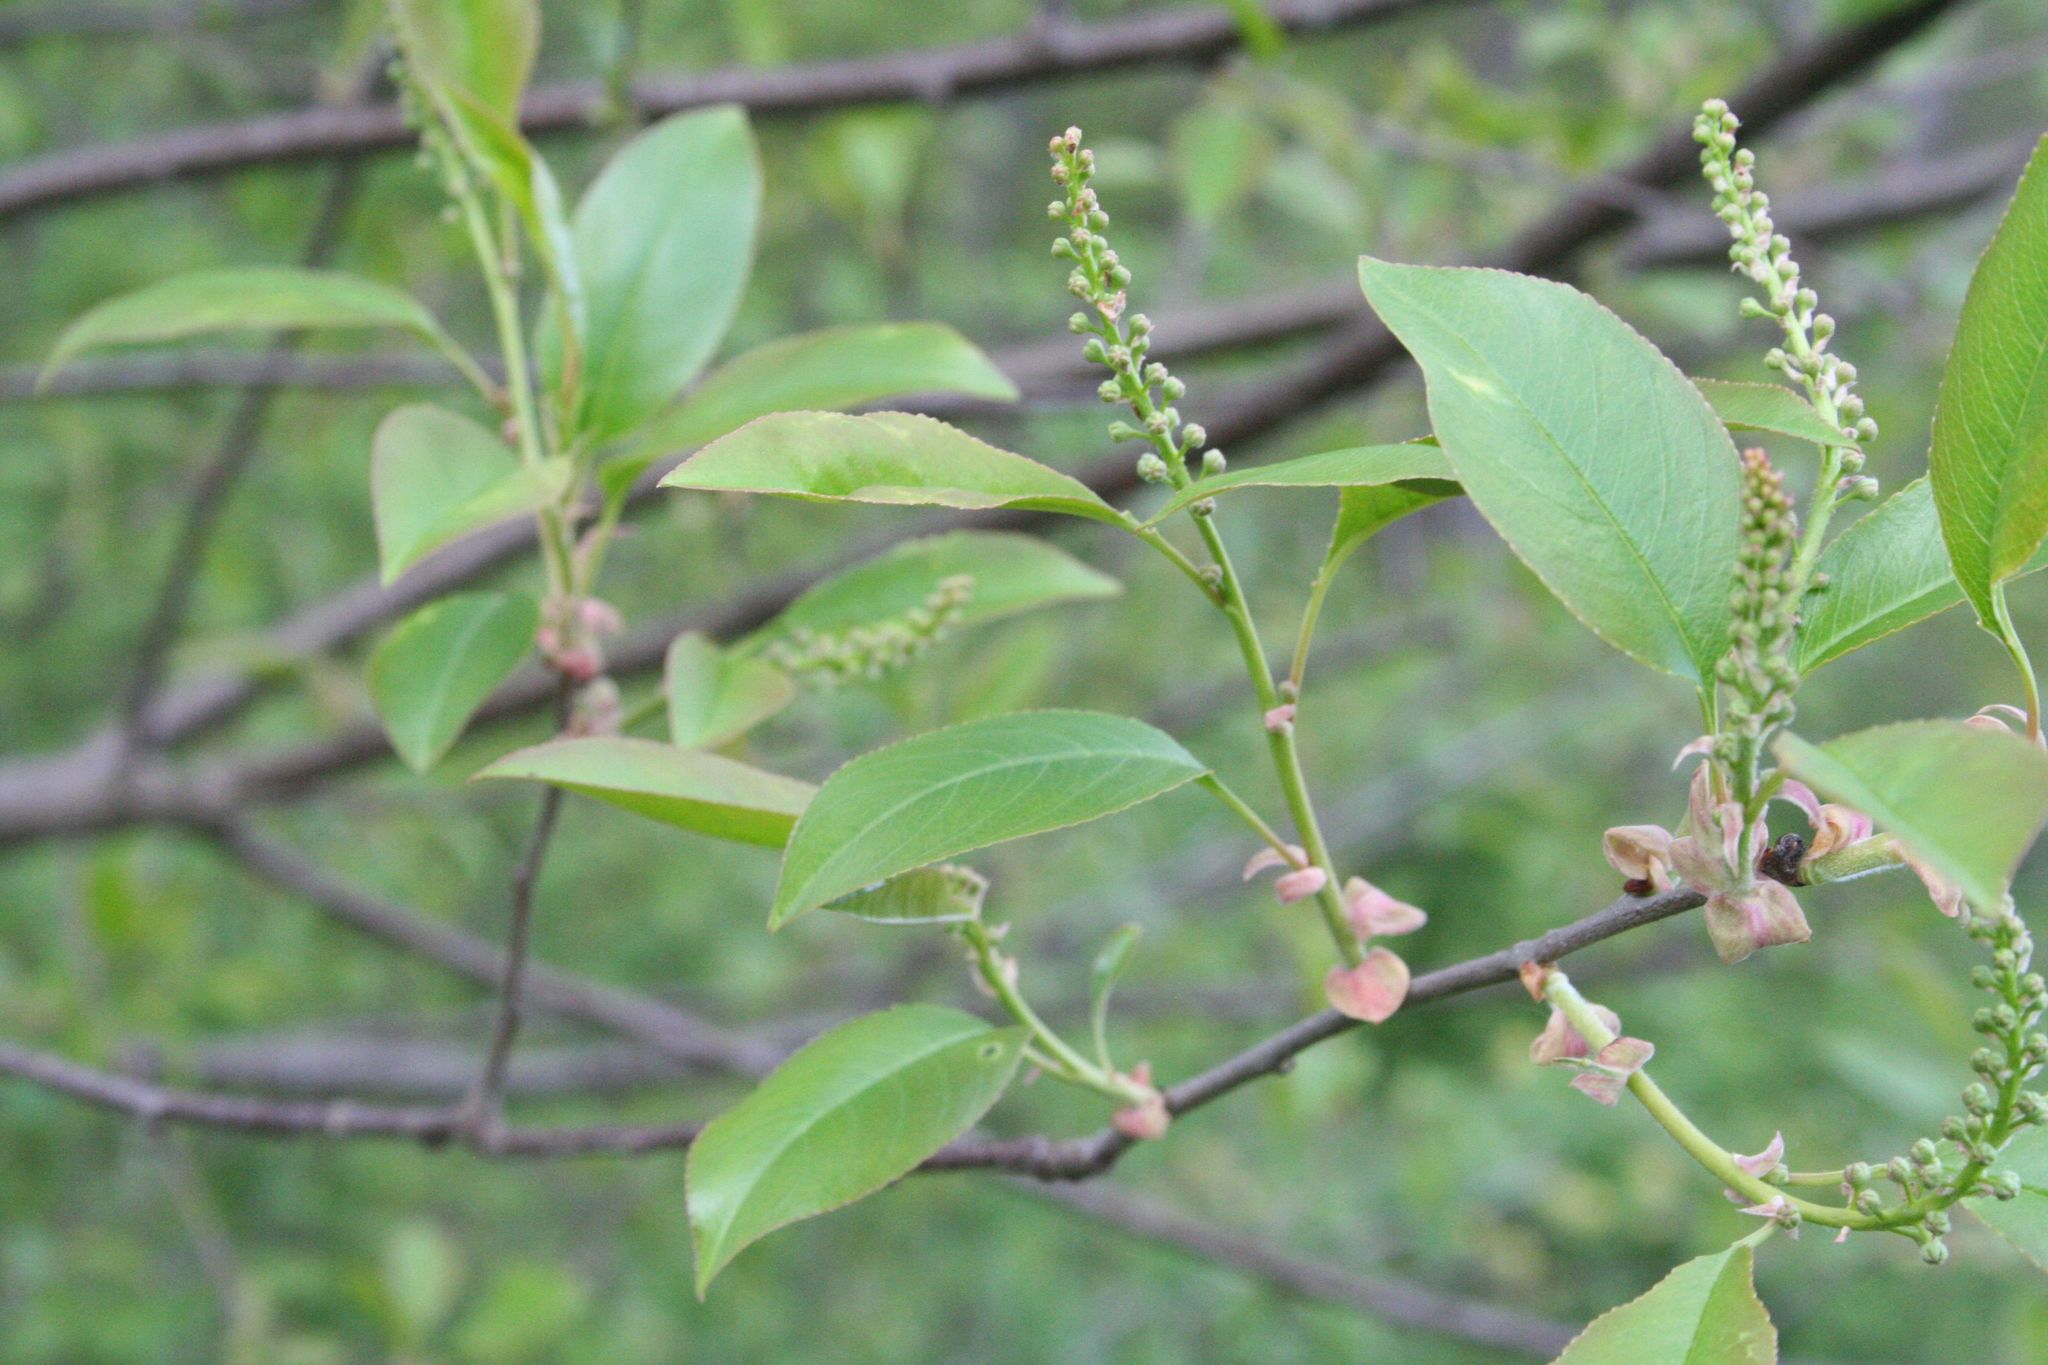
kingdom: Plantae
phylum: Tracheophyta
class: Magnoliopsida
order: Rosales
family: Rosaceae
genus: Prunus
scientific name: Prunus serotina
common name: Black cherry
